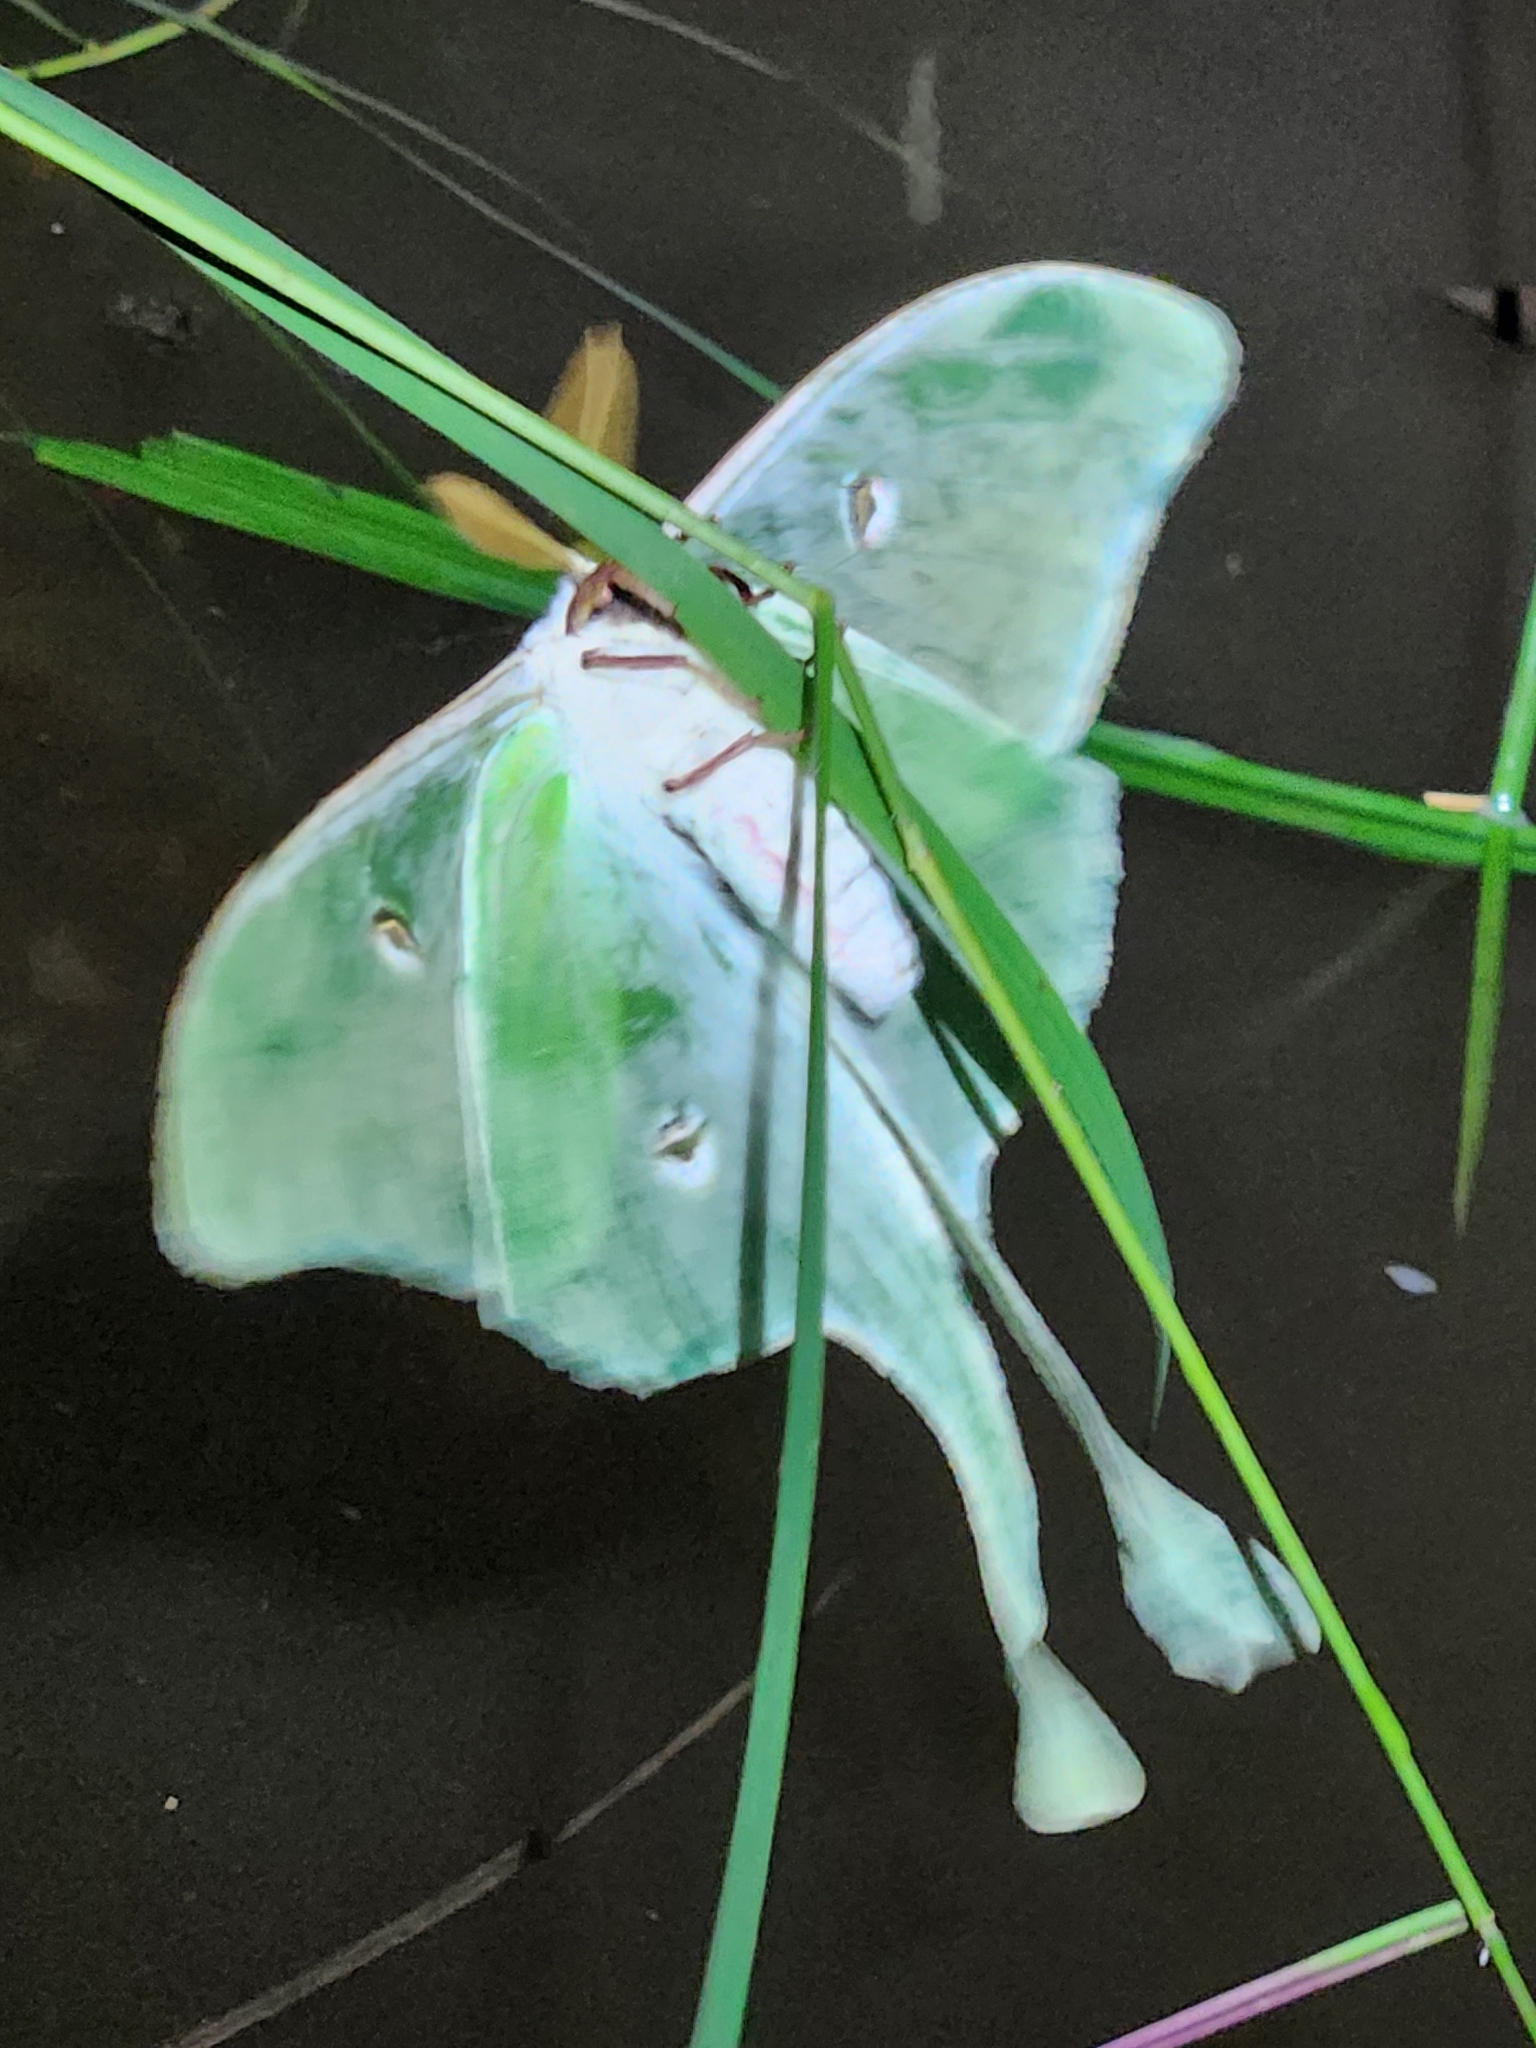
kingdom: Animalia
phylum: Arthropoda
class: Insecta
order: Lepidoptera
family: Saturniidae
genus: Actias
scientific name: Actias luna
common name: Luna moth
